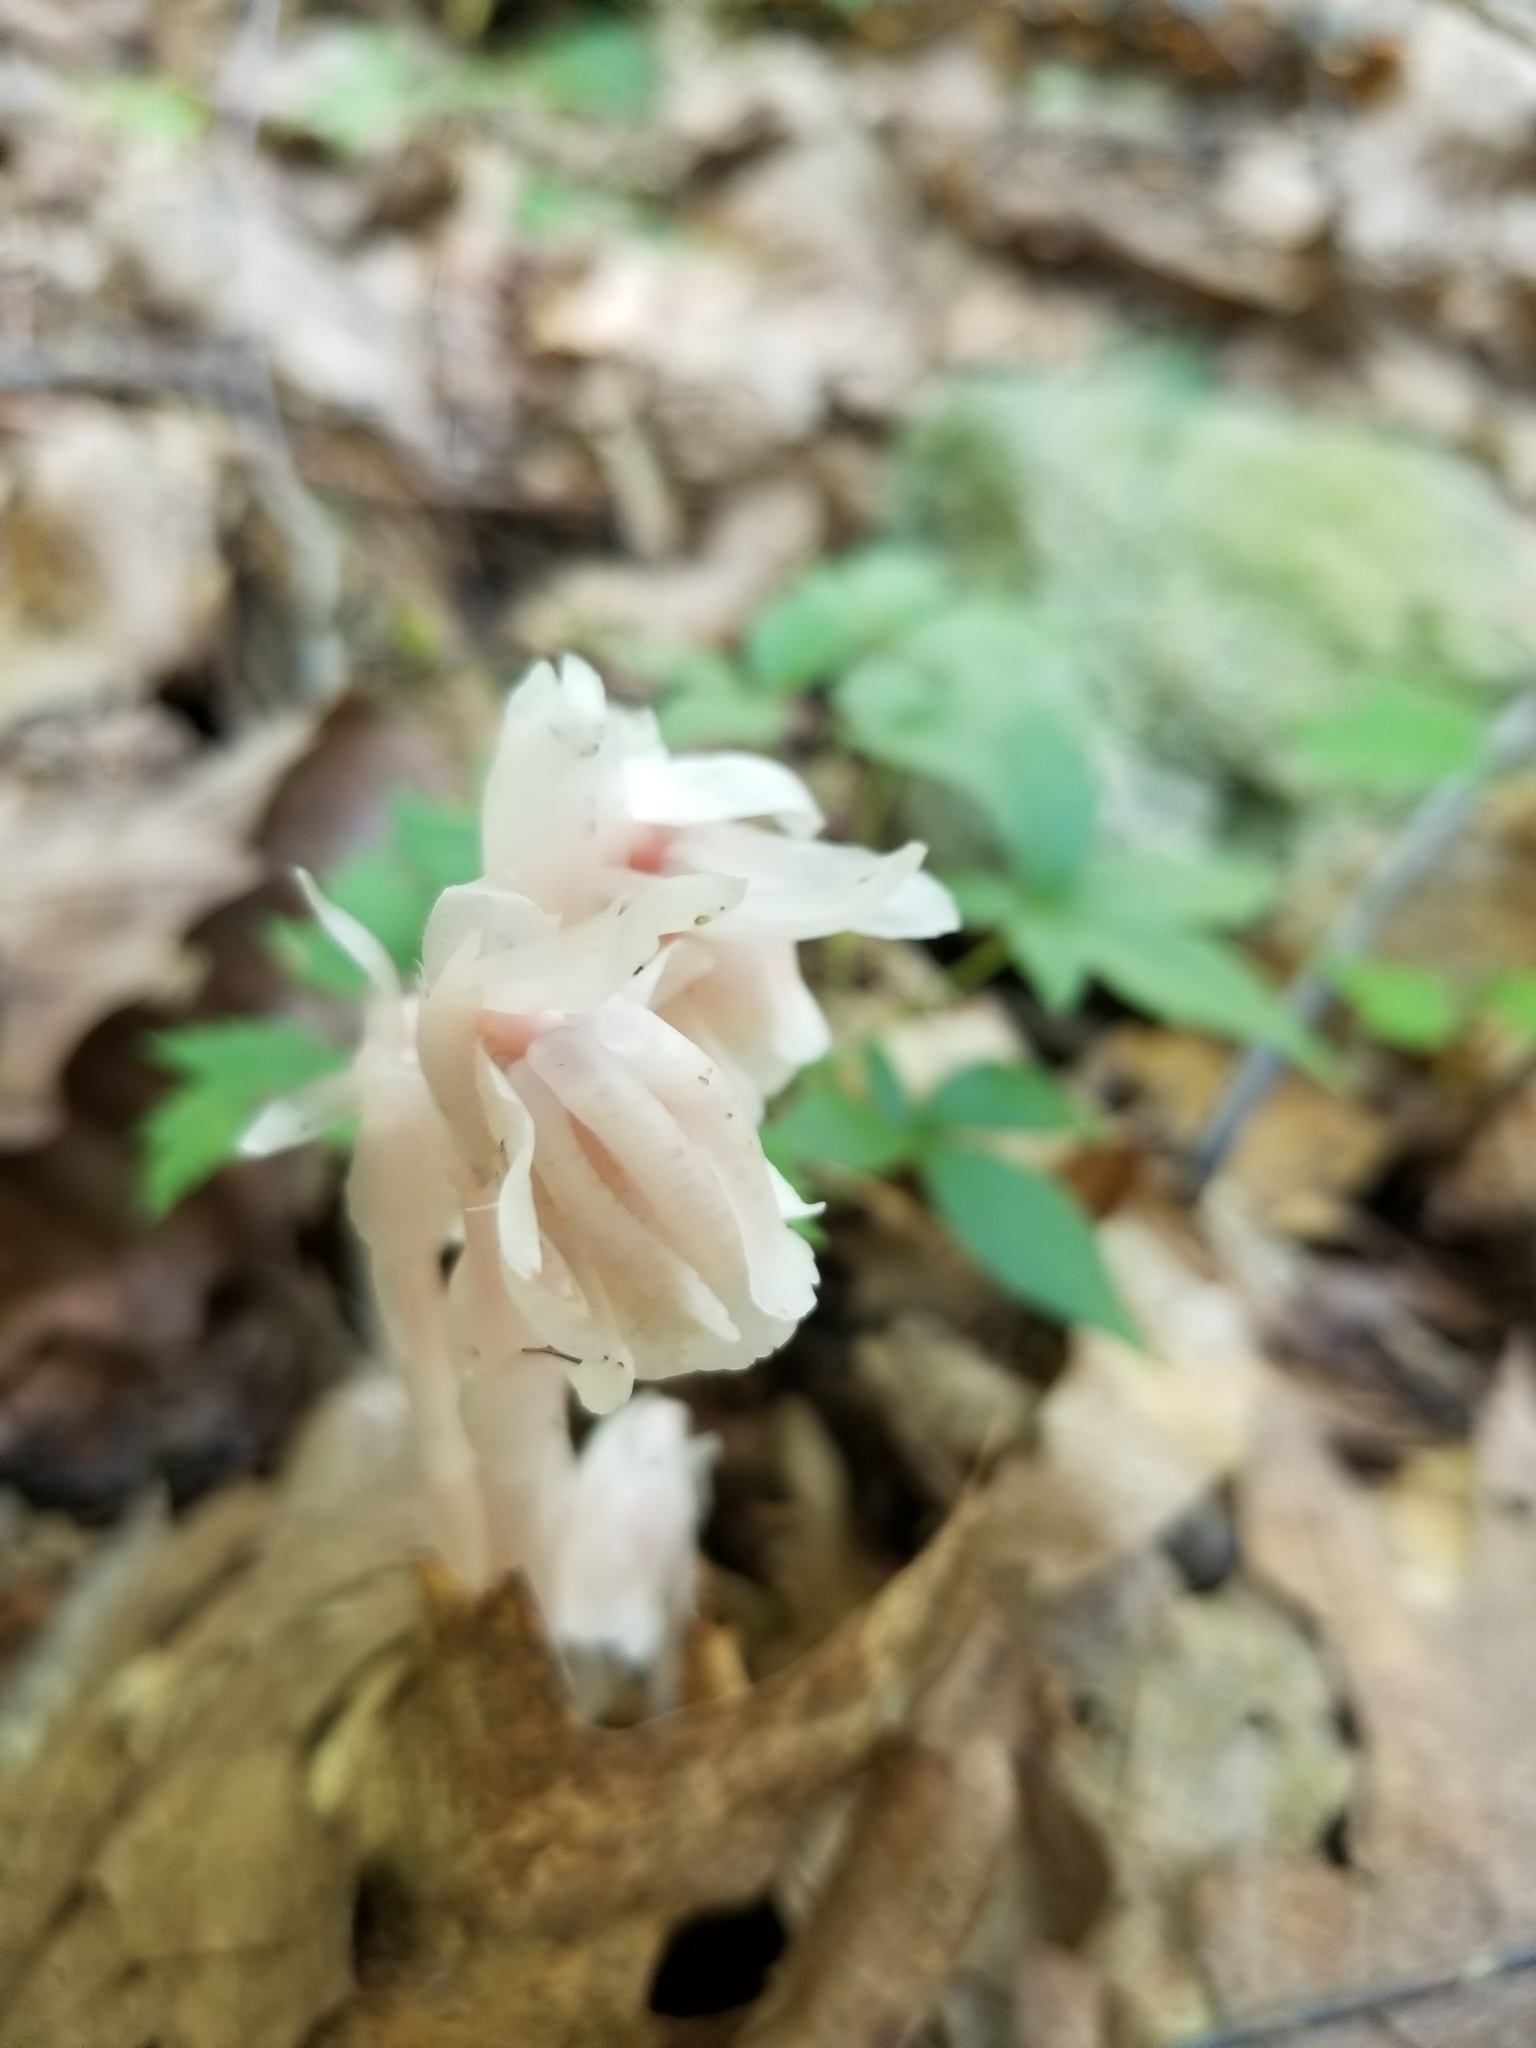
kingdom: Plantae
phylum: Tracheophyta
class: Magnoliopsida
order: Ericales
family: Ericaceae
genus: Monotropa
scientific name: Monotropa uniflora
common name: Convulsion root
